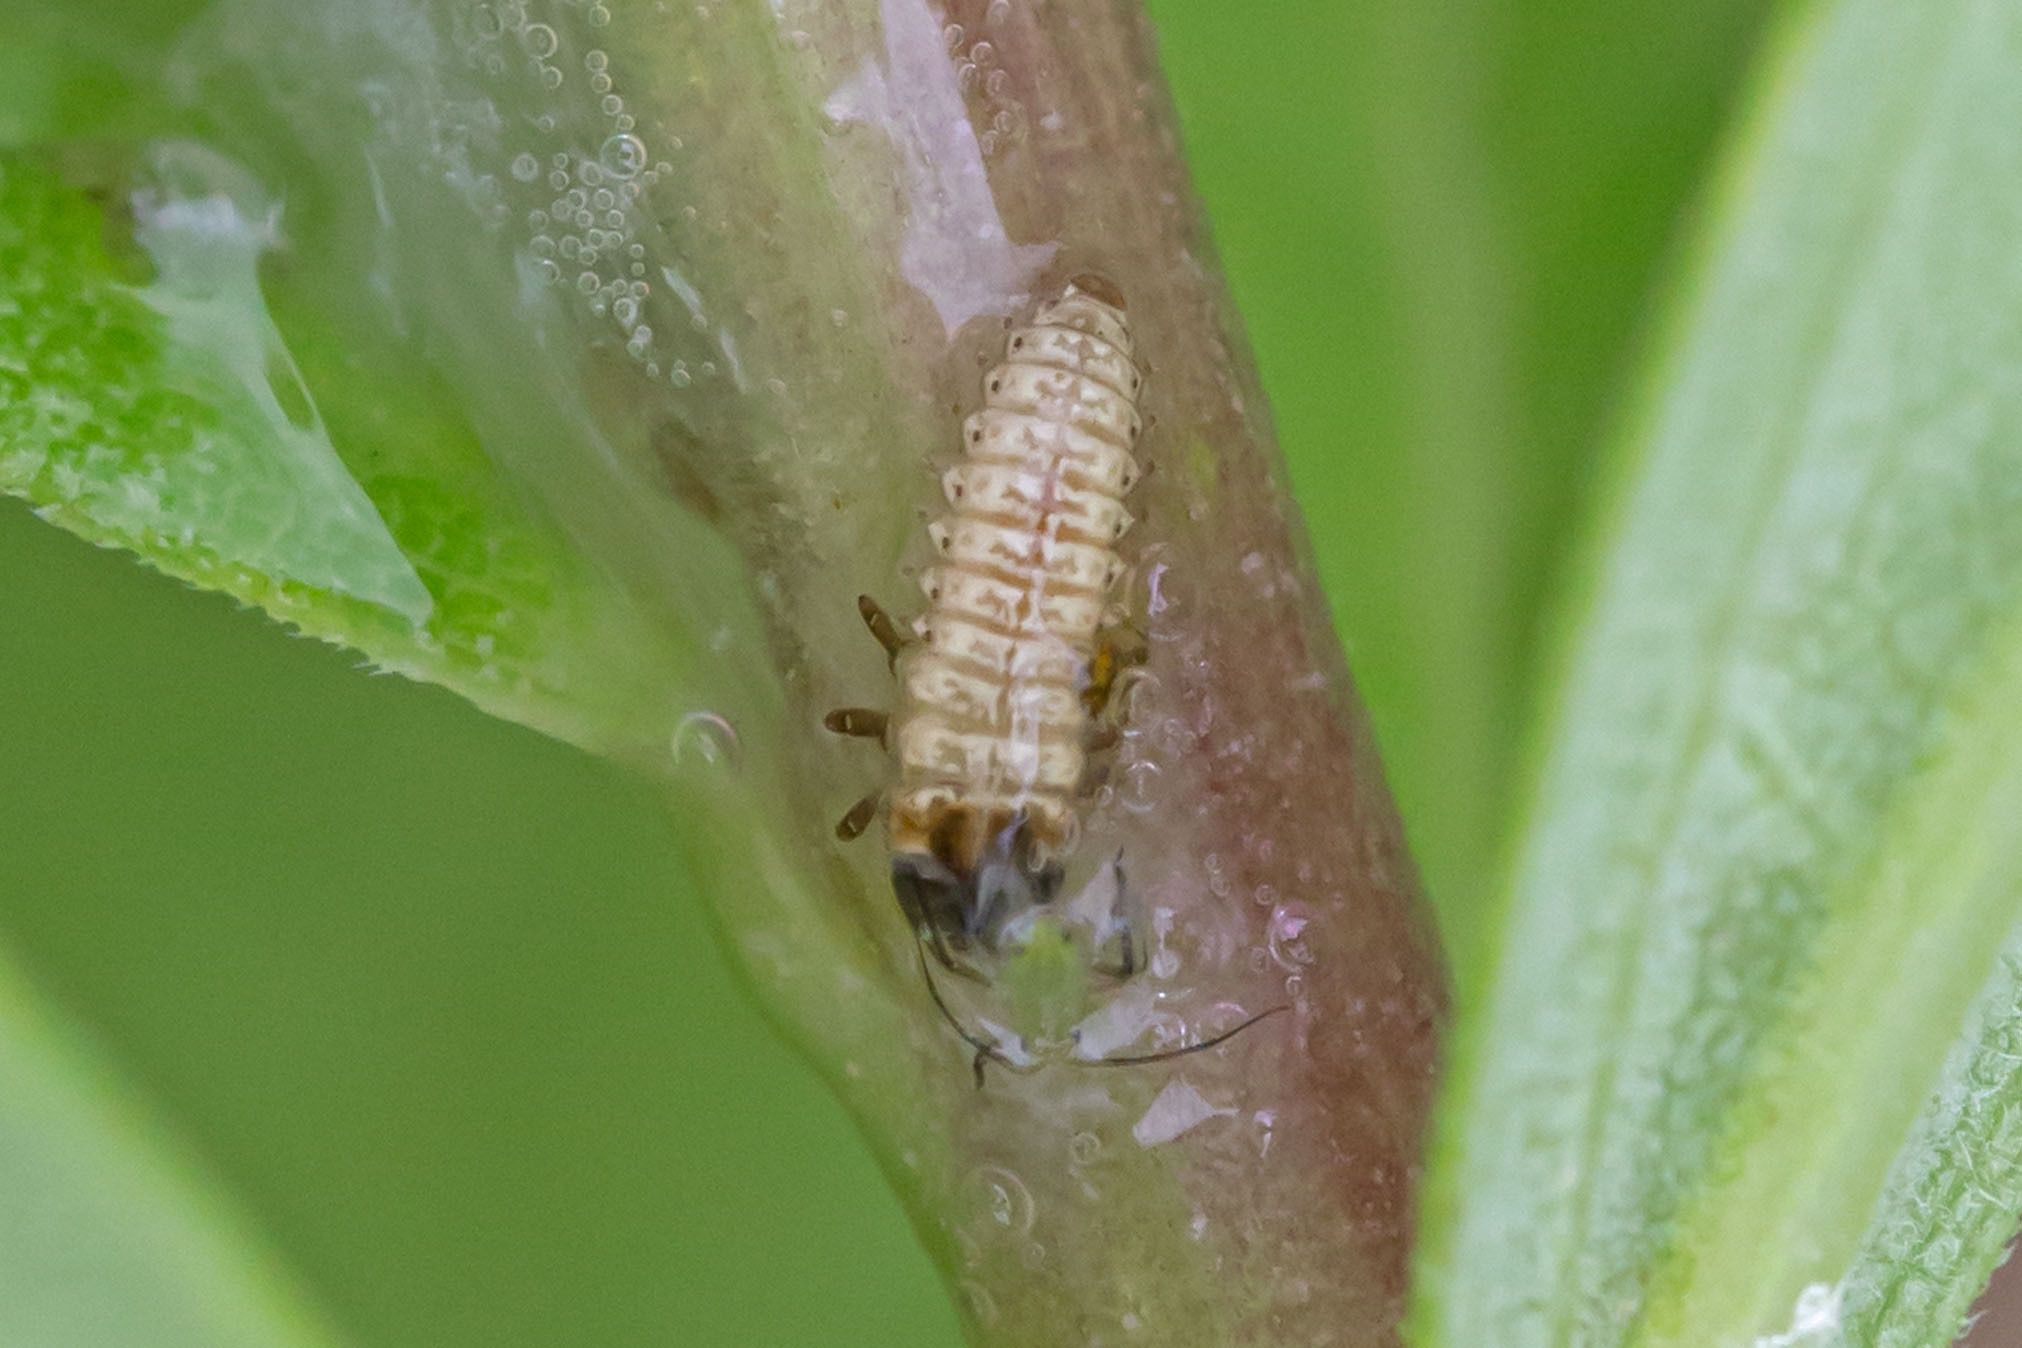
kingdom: Animalia
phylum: Arthropoda
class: Insecta
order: Coleoptera
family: Chrysomelidae
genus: Microrhopala
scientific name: Microrhopala vittata
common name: Goldenrod leaf miner beetle
